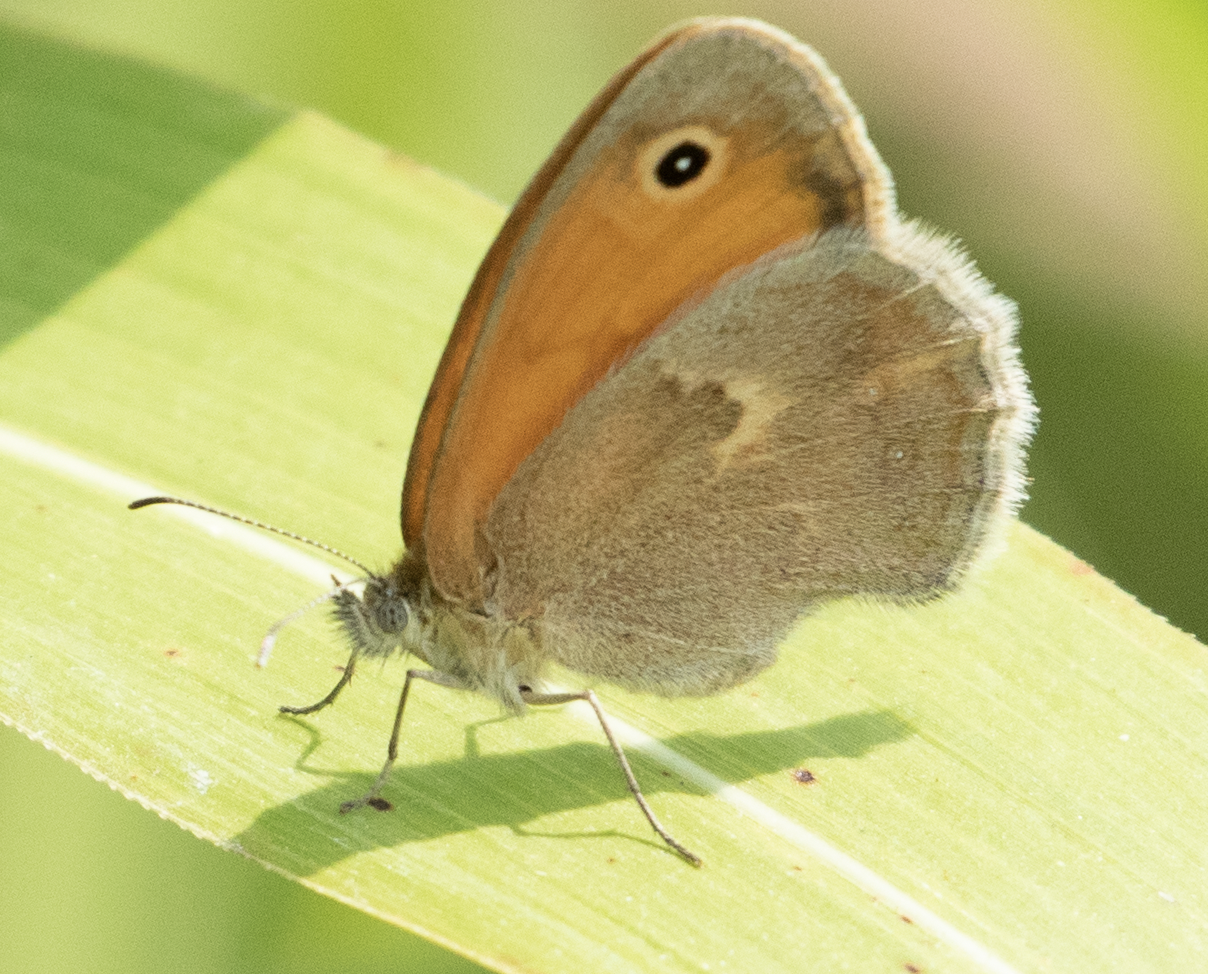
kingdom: Animalia
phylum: Arthropoda
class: Insecta
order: Lepidoptera
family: Nymphalidae
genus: Coenonympha
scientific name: Coenonympha pamphilus
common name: Small heath
